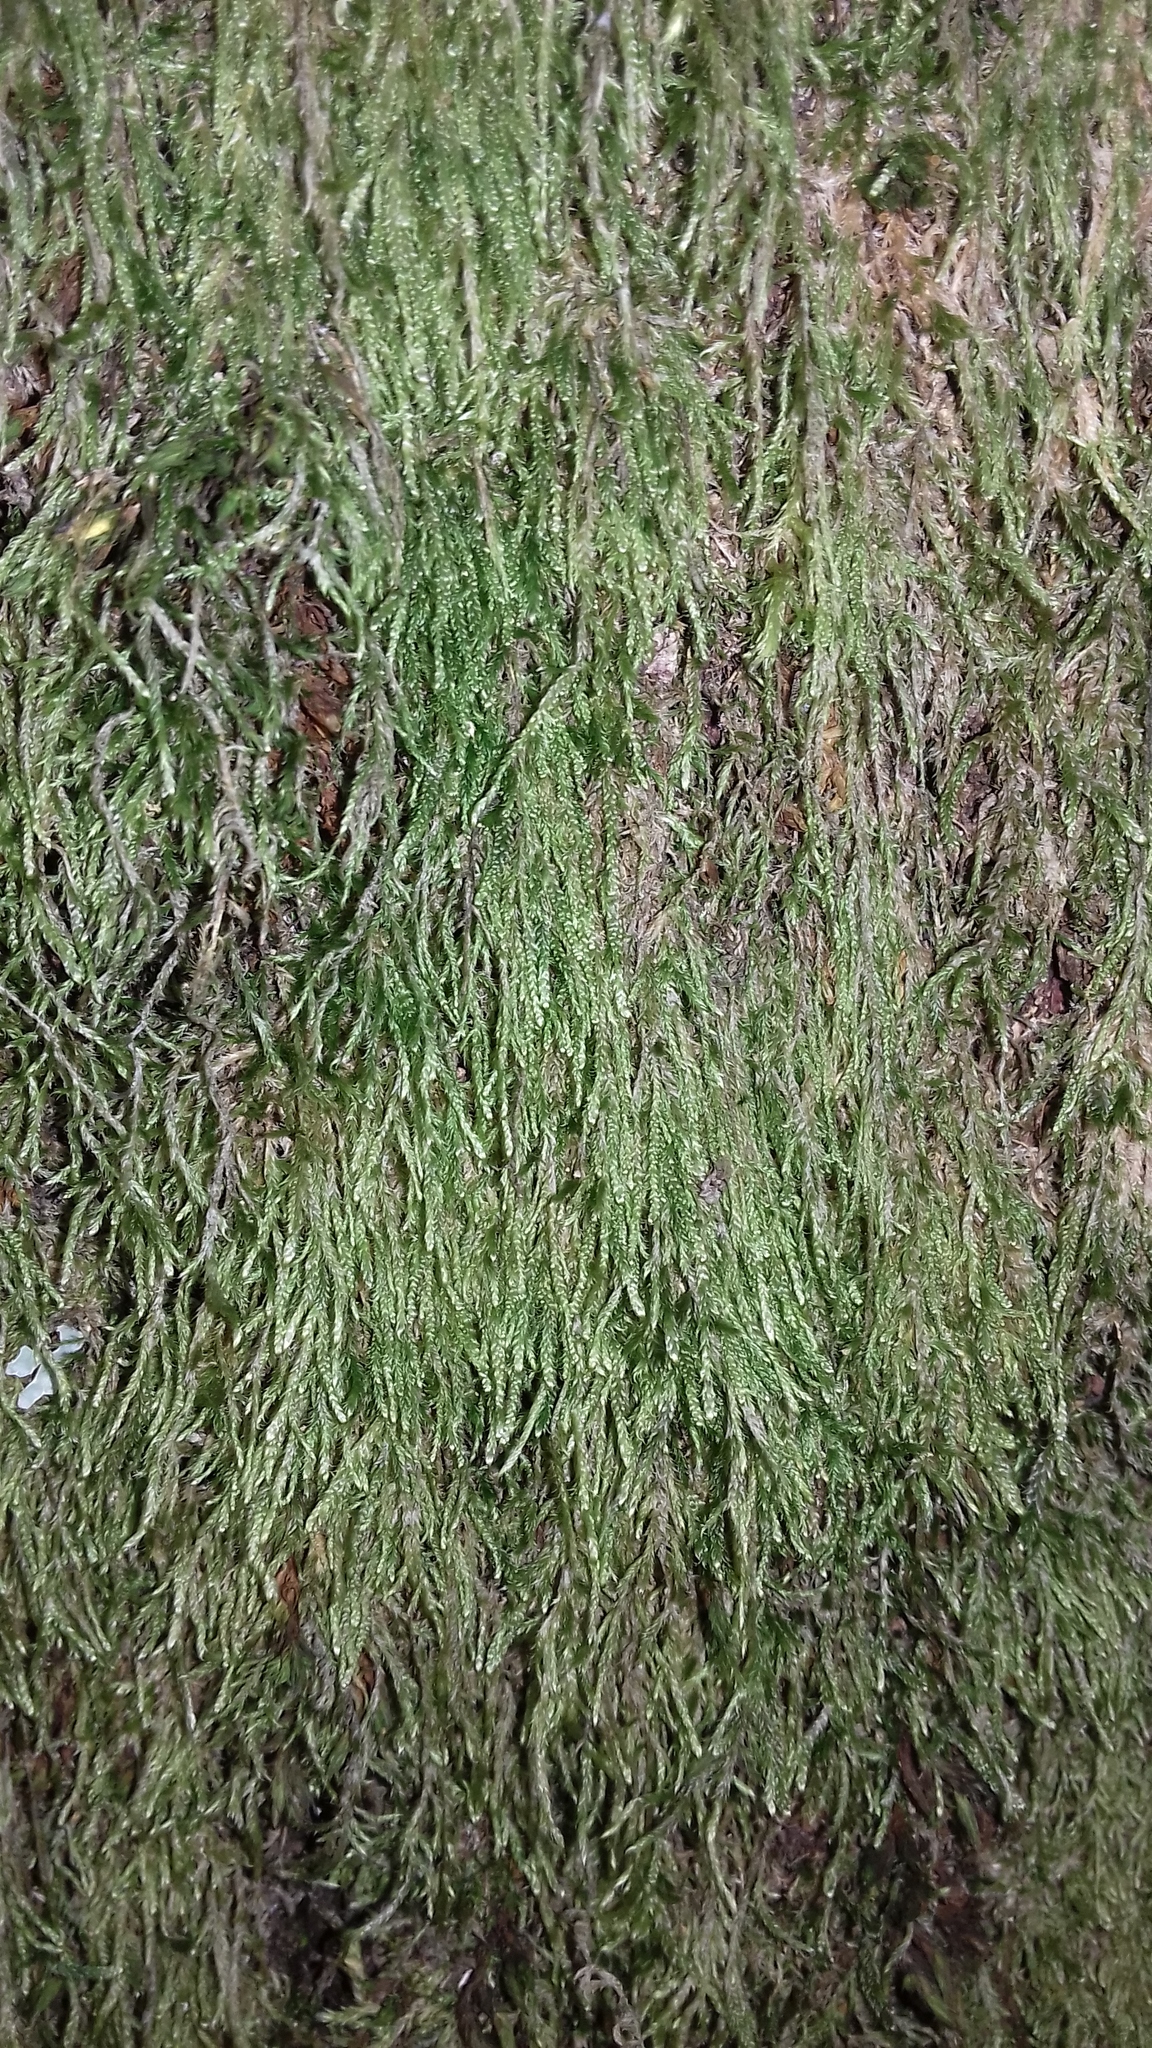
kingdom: Plantae
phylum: Bryophyta
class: Bryopsida
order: Hypnales
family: Hypnaceae
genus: Hypnum
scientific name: Hypnum cupressiforme
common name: Cypress-leaved plait-moss
